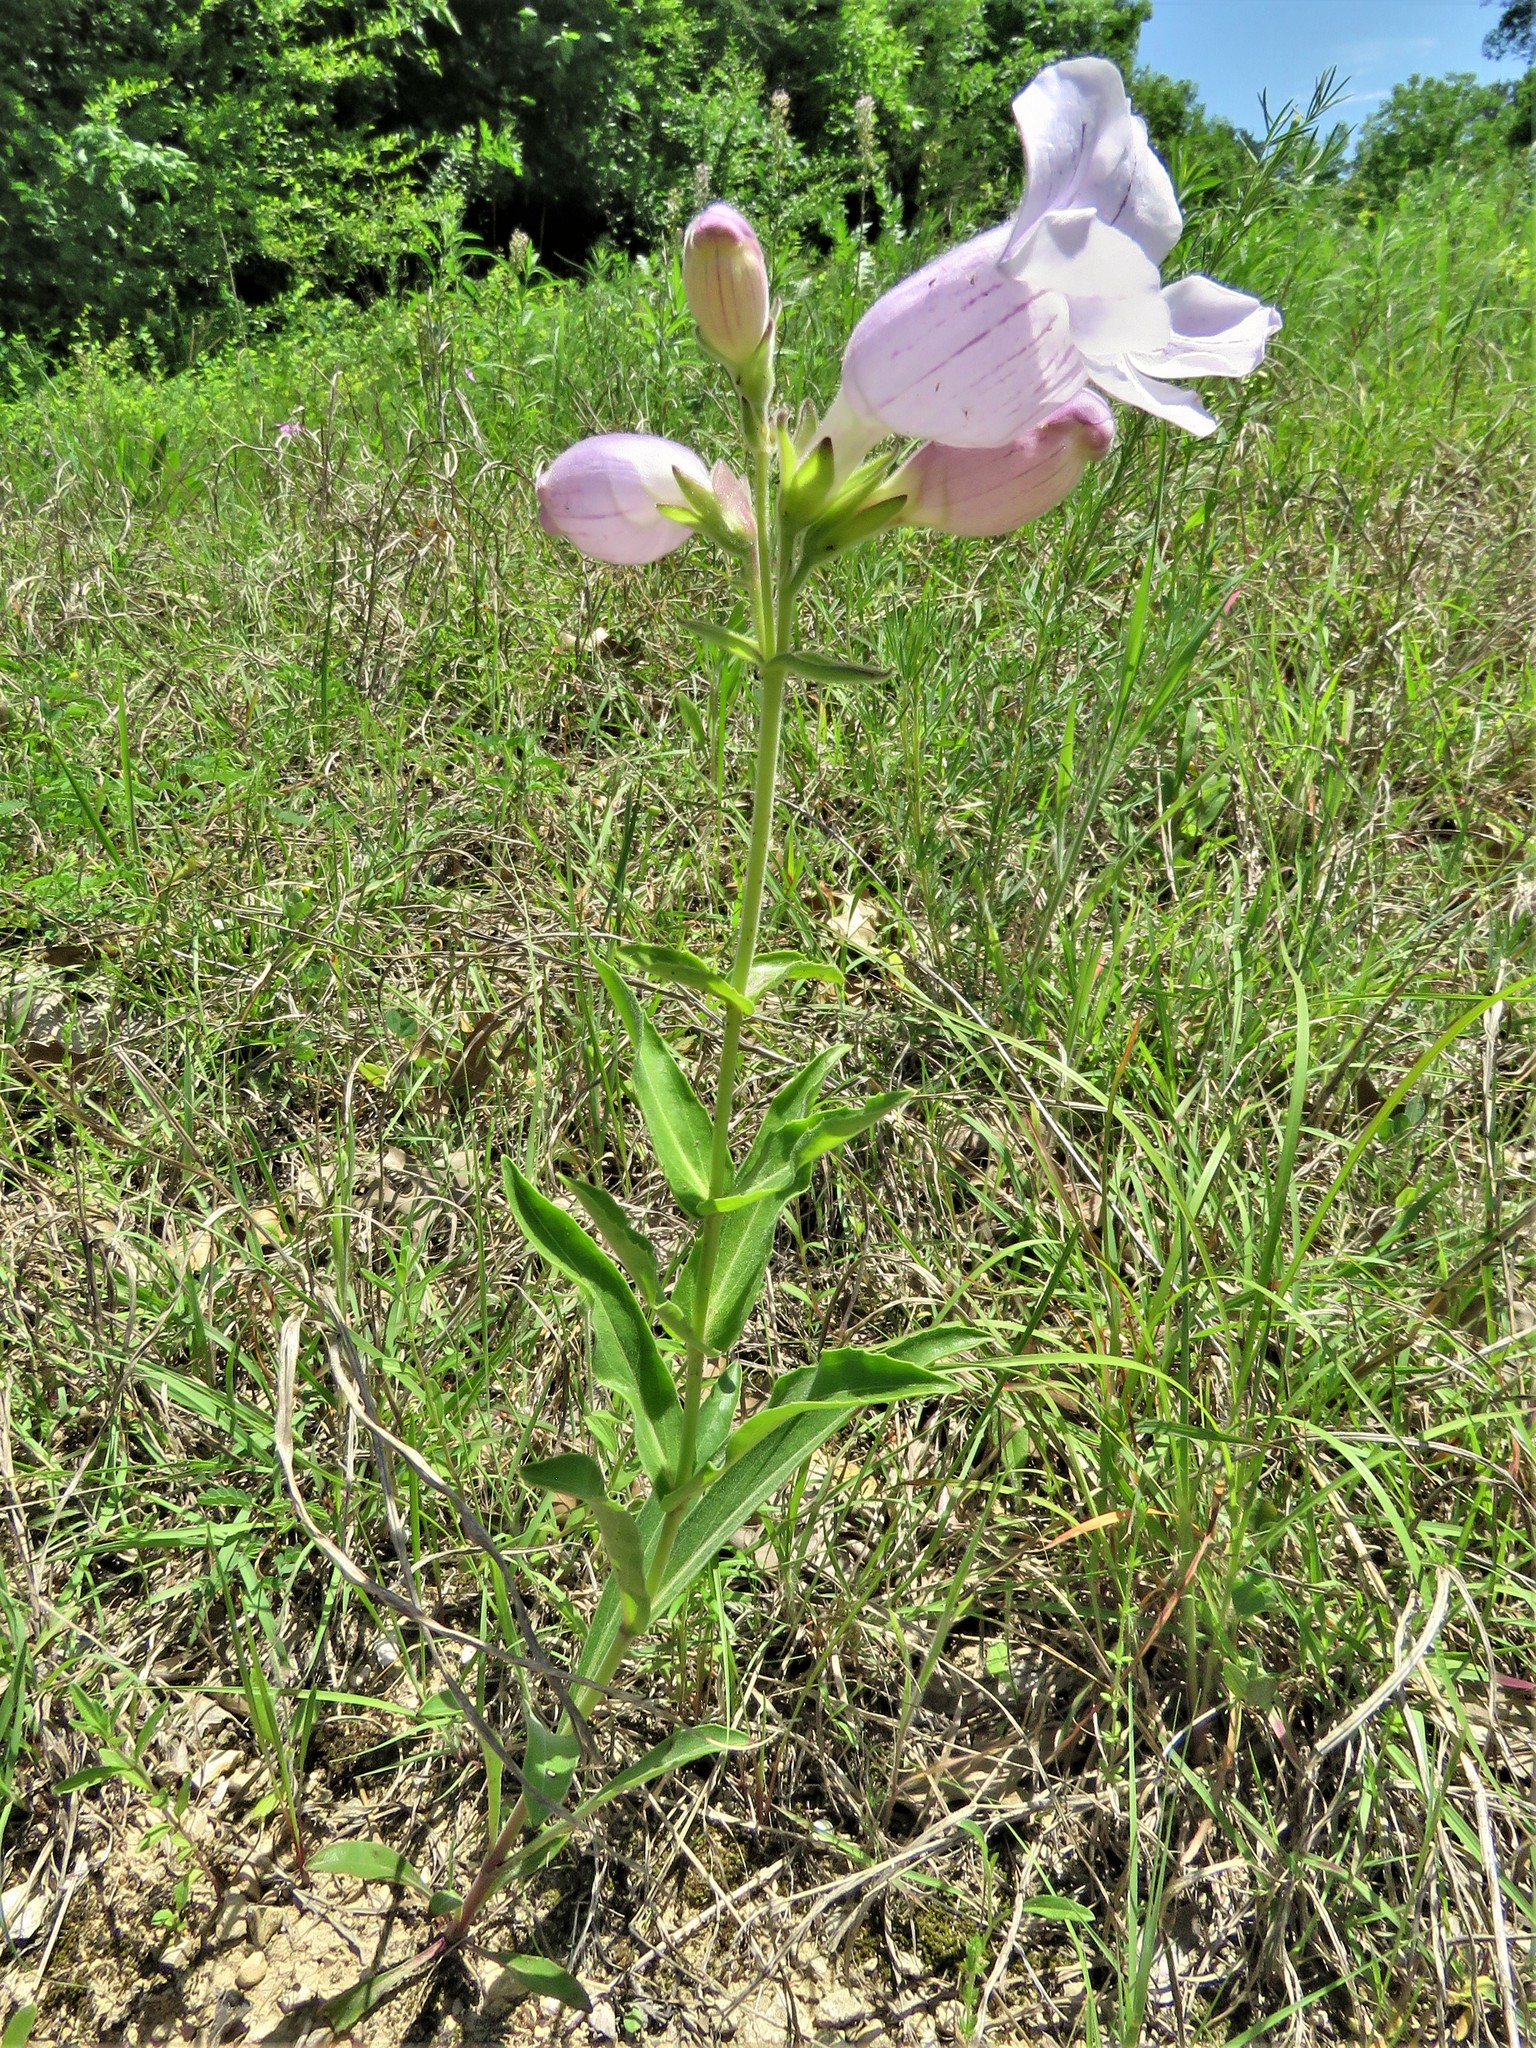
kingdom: Plantae
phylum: Tracheophyta
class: Magnoliopsida
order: Lamiales
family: Plantaginaceae
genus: Penstemon
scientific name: Penstemon cobaea
